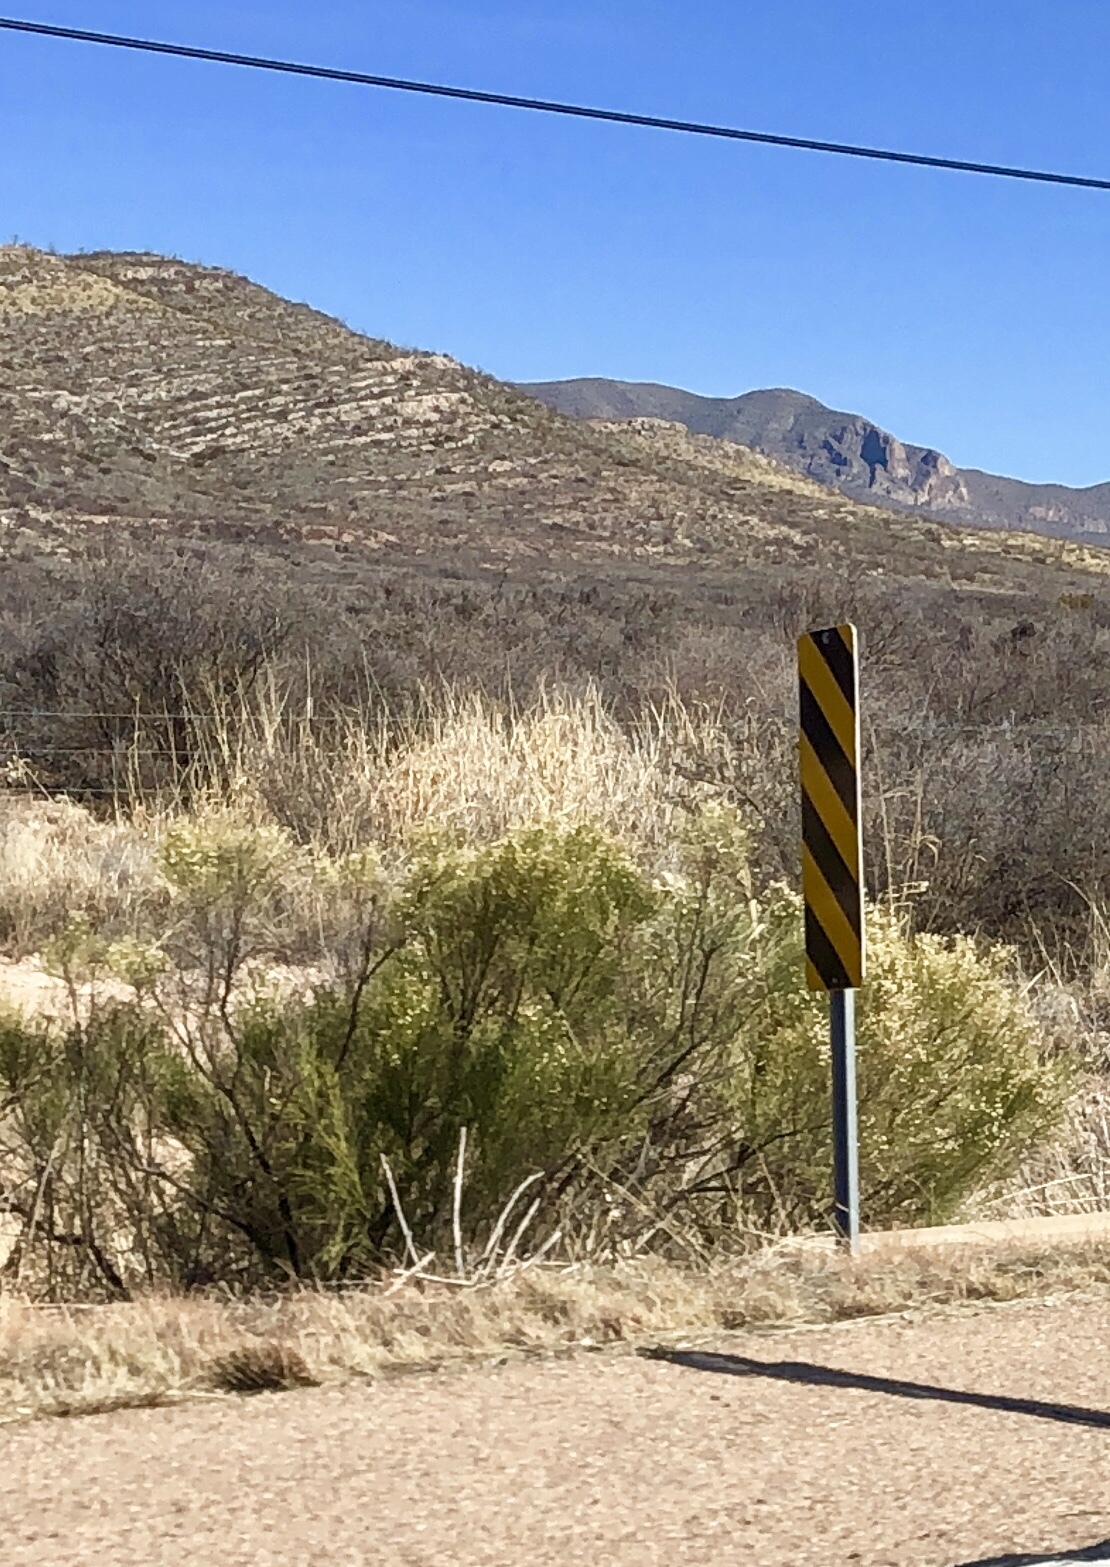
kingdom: Plantae
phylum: Tracheophyta
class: Magnoliopsida
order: Asterales
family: Asteraceae
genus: Baccharis
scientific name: Baccharis sarothroides
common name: Desert-broom
